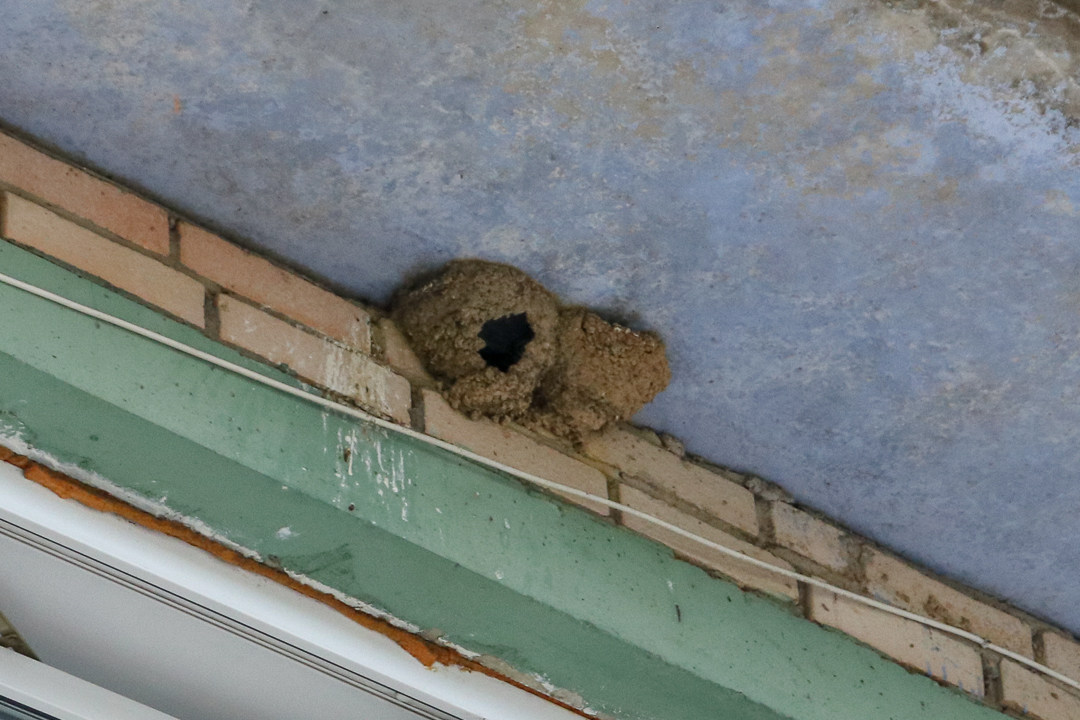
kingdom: Animalia
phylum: Chordata
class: Aves
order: Passeriformes
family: Hirundinidae
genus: Delichon
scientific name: Delichon urbicum
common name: Common house martin
